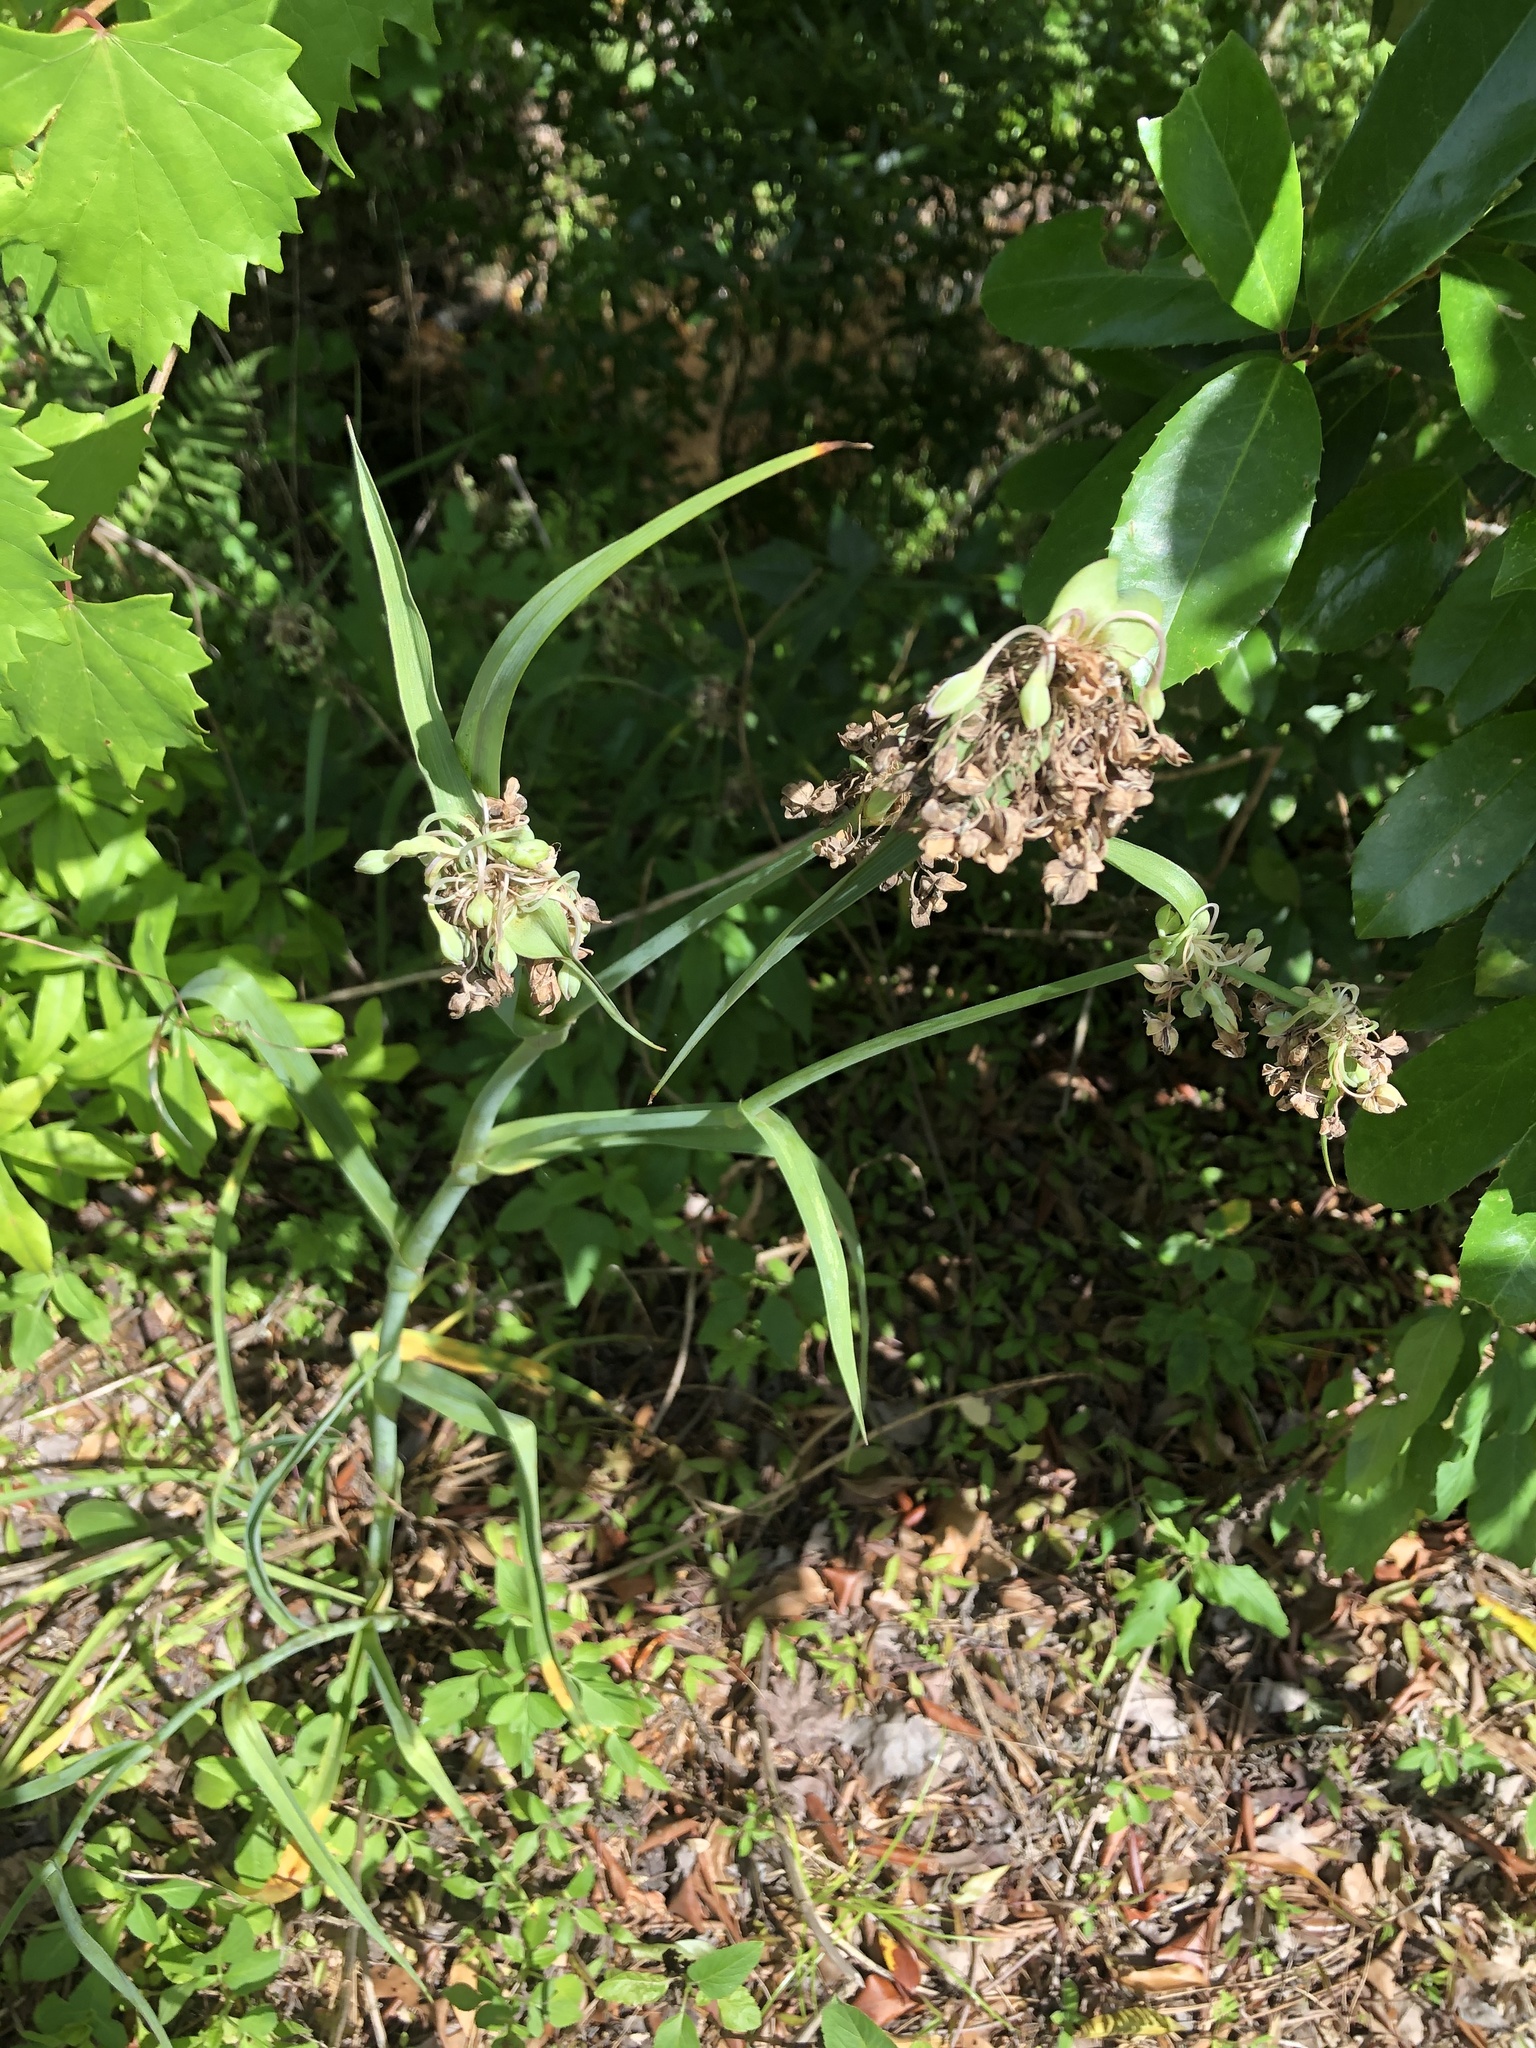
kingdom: Plantae
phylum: Tracheophyta
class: Liliopsida
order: Commelinales
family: Commelinaceae
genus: Tradescantia
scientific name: Tradescantia ohiensis
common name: Ohio spiderwort
